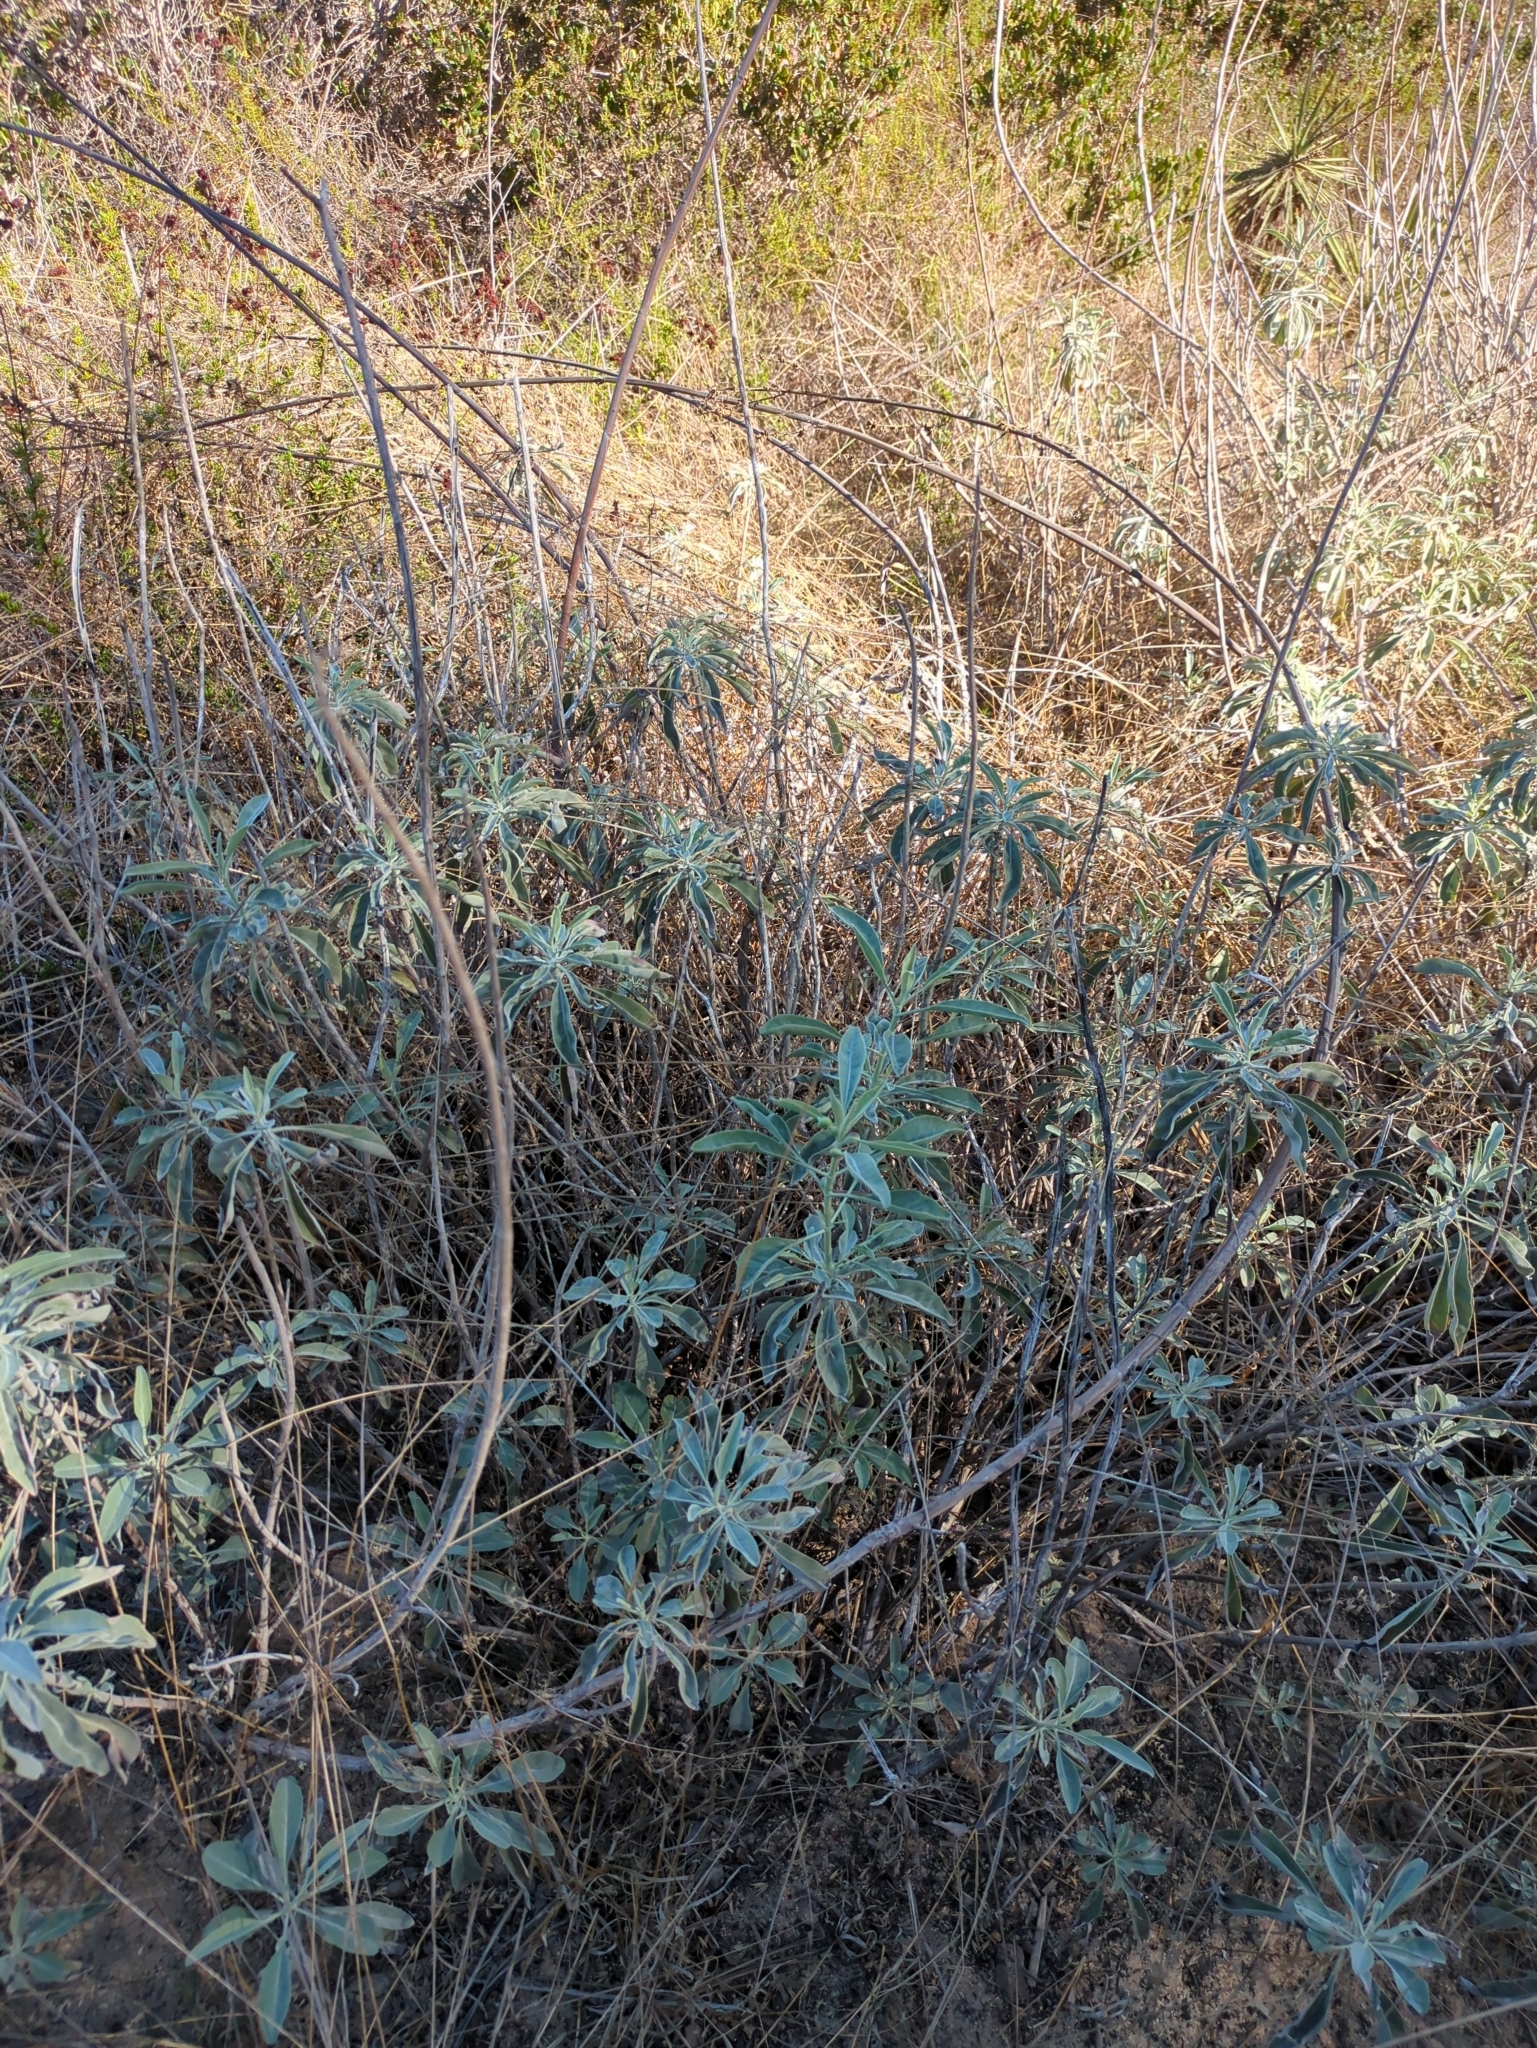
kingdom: Plantae
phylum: Tracheophyta
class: Magnoliopsida
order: Lamiales
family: Lamiaceae
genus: Salvia
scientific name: Salvia apiana
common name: White sage
